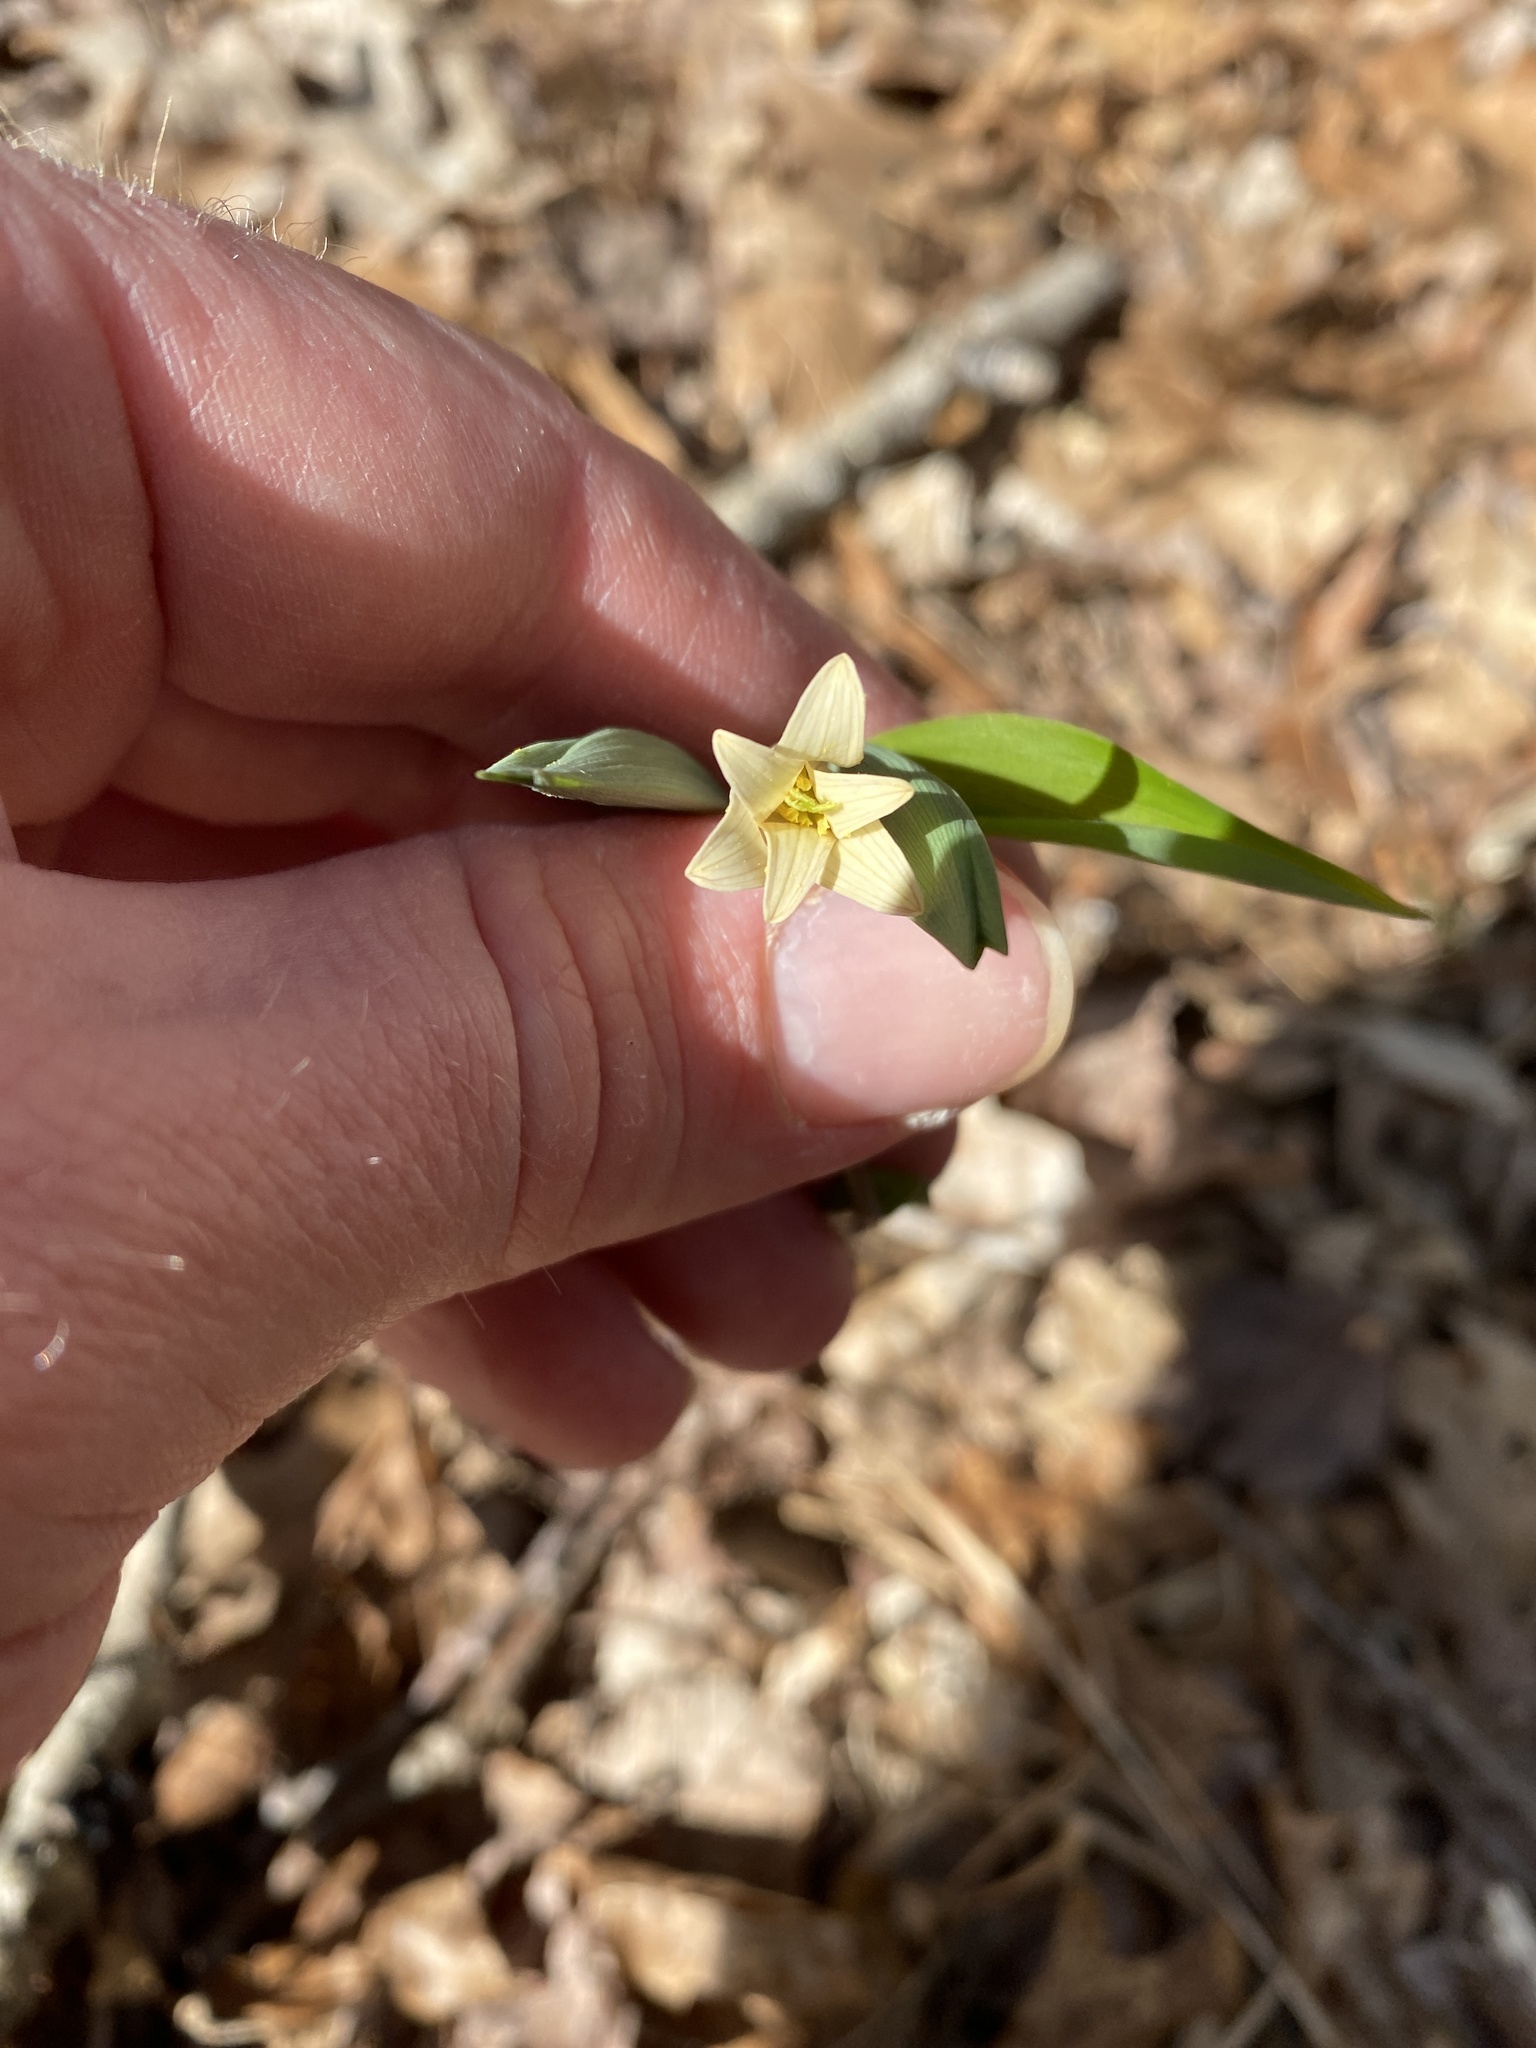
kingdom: Plantae
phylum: Tracheophyta
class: Liliopsida
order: Liliales
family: Colchicaceae
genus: Uvularia
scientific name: Uvularia sessilifolia
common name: Straw-lily
